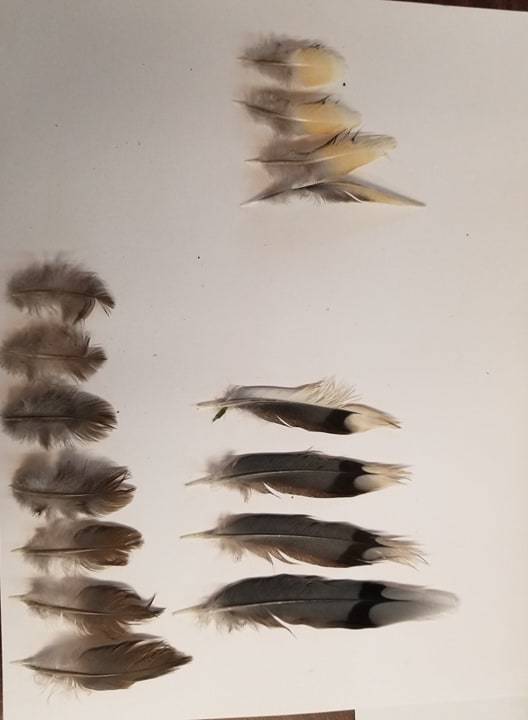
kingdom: Animalia
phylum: Chordata
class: Aves
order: Columbiformes
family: Columbidae
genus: Zenaida
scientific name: Zenaida macroura
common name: Mourning dove
